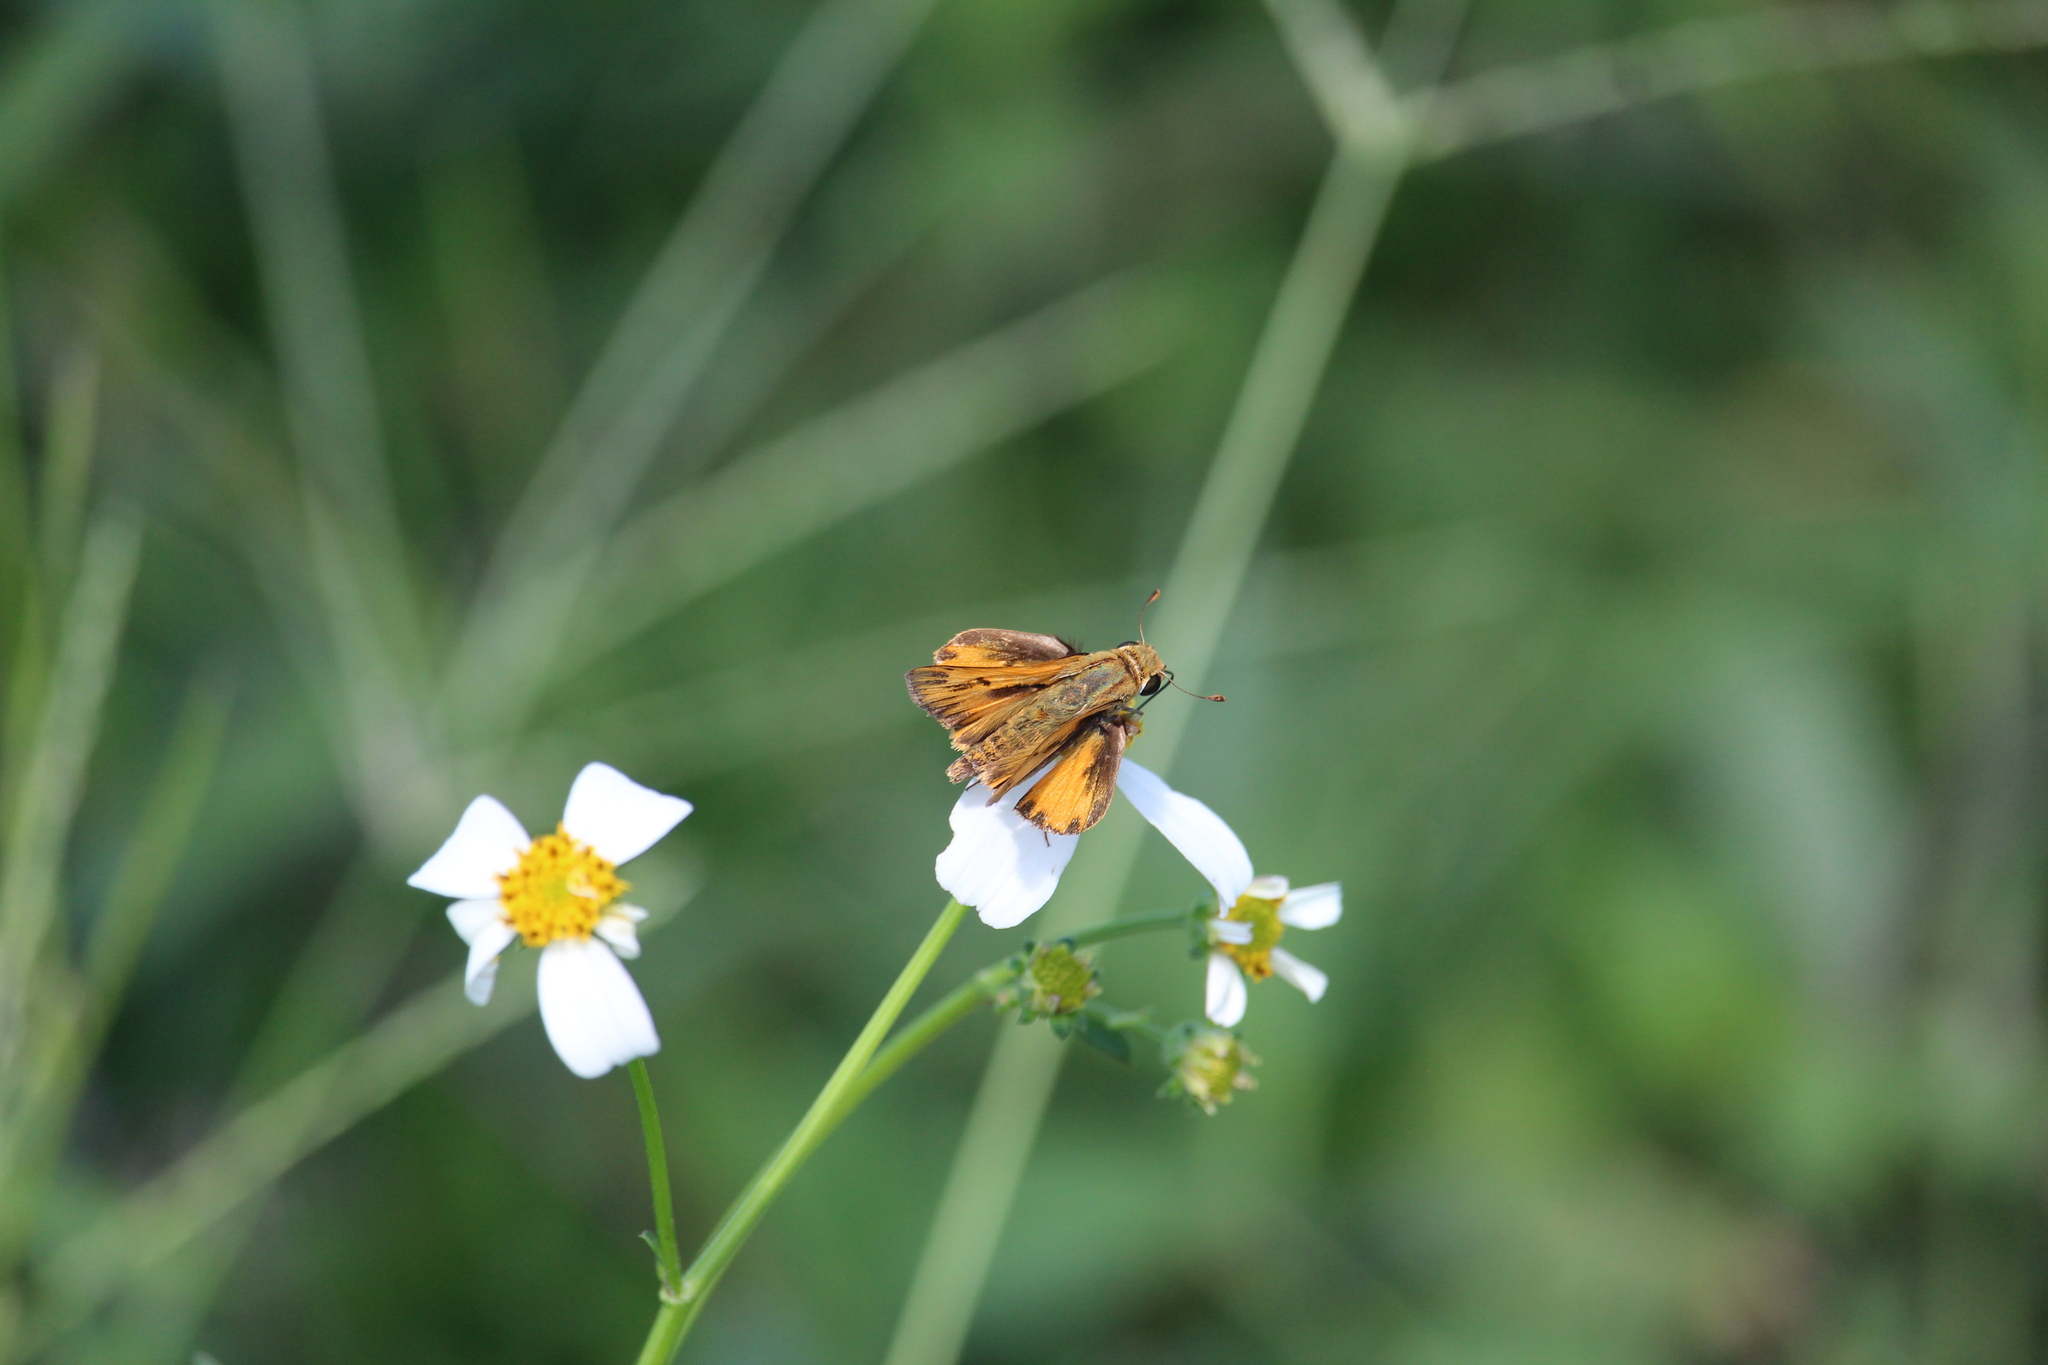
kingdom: Animalia
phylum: Arthropoda
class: Insecta
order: Lepidoptera
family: Hesperiidae
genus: Hylephila
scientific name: Hylephila phyleus
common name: Fiery skipper
